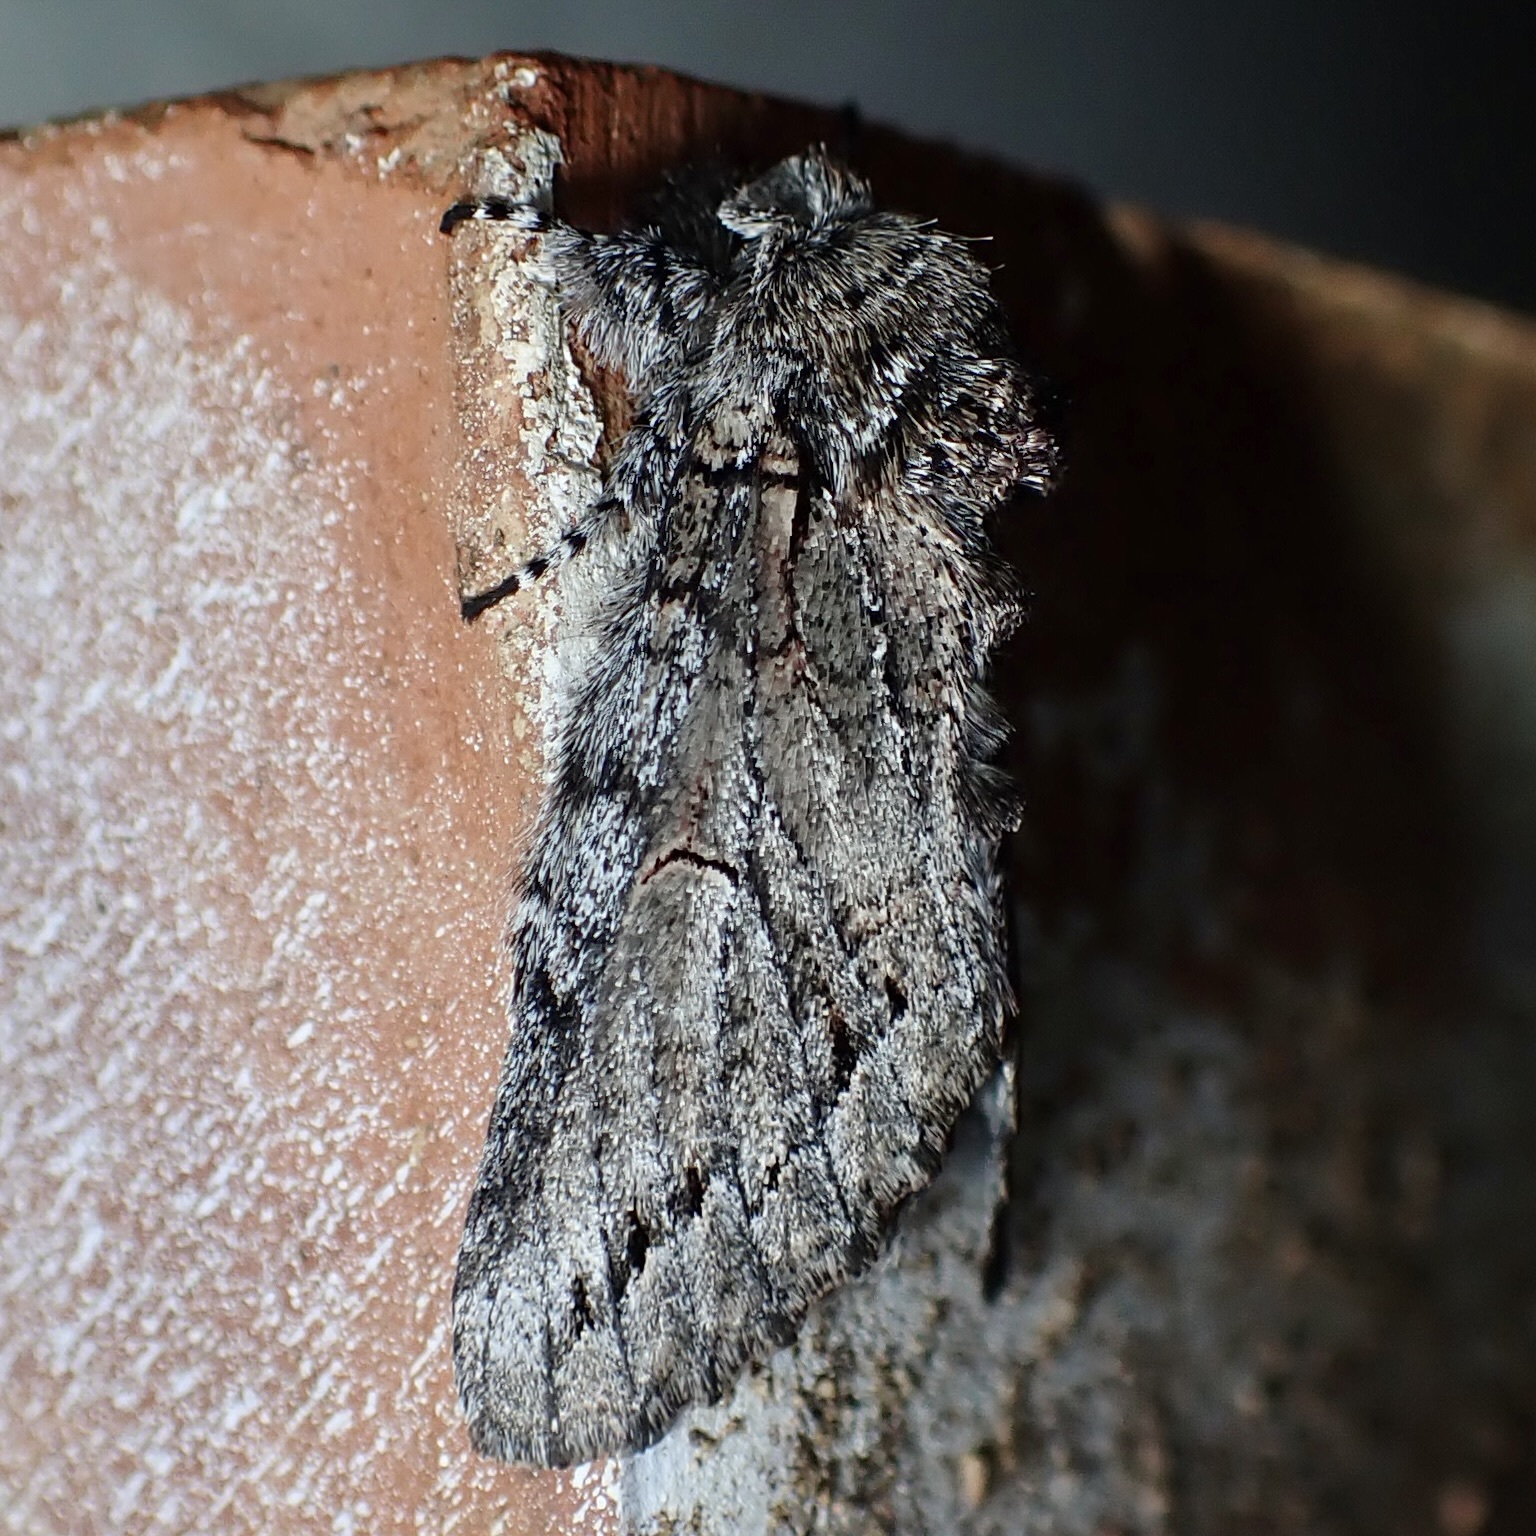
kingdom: Animalia
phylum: Arthropoda
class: Insecta
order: Lepidoptera
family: Notodontidae
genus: Heterocampa
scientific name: Heterocampa averna
